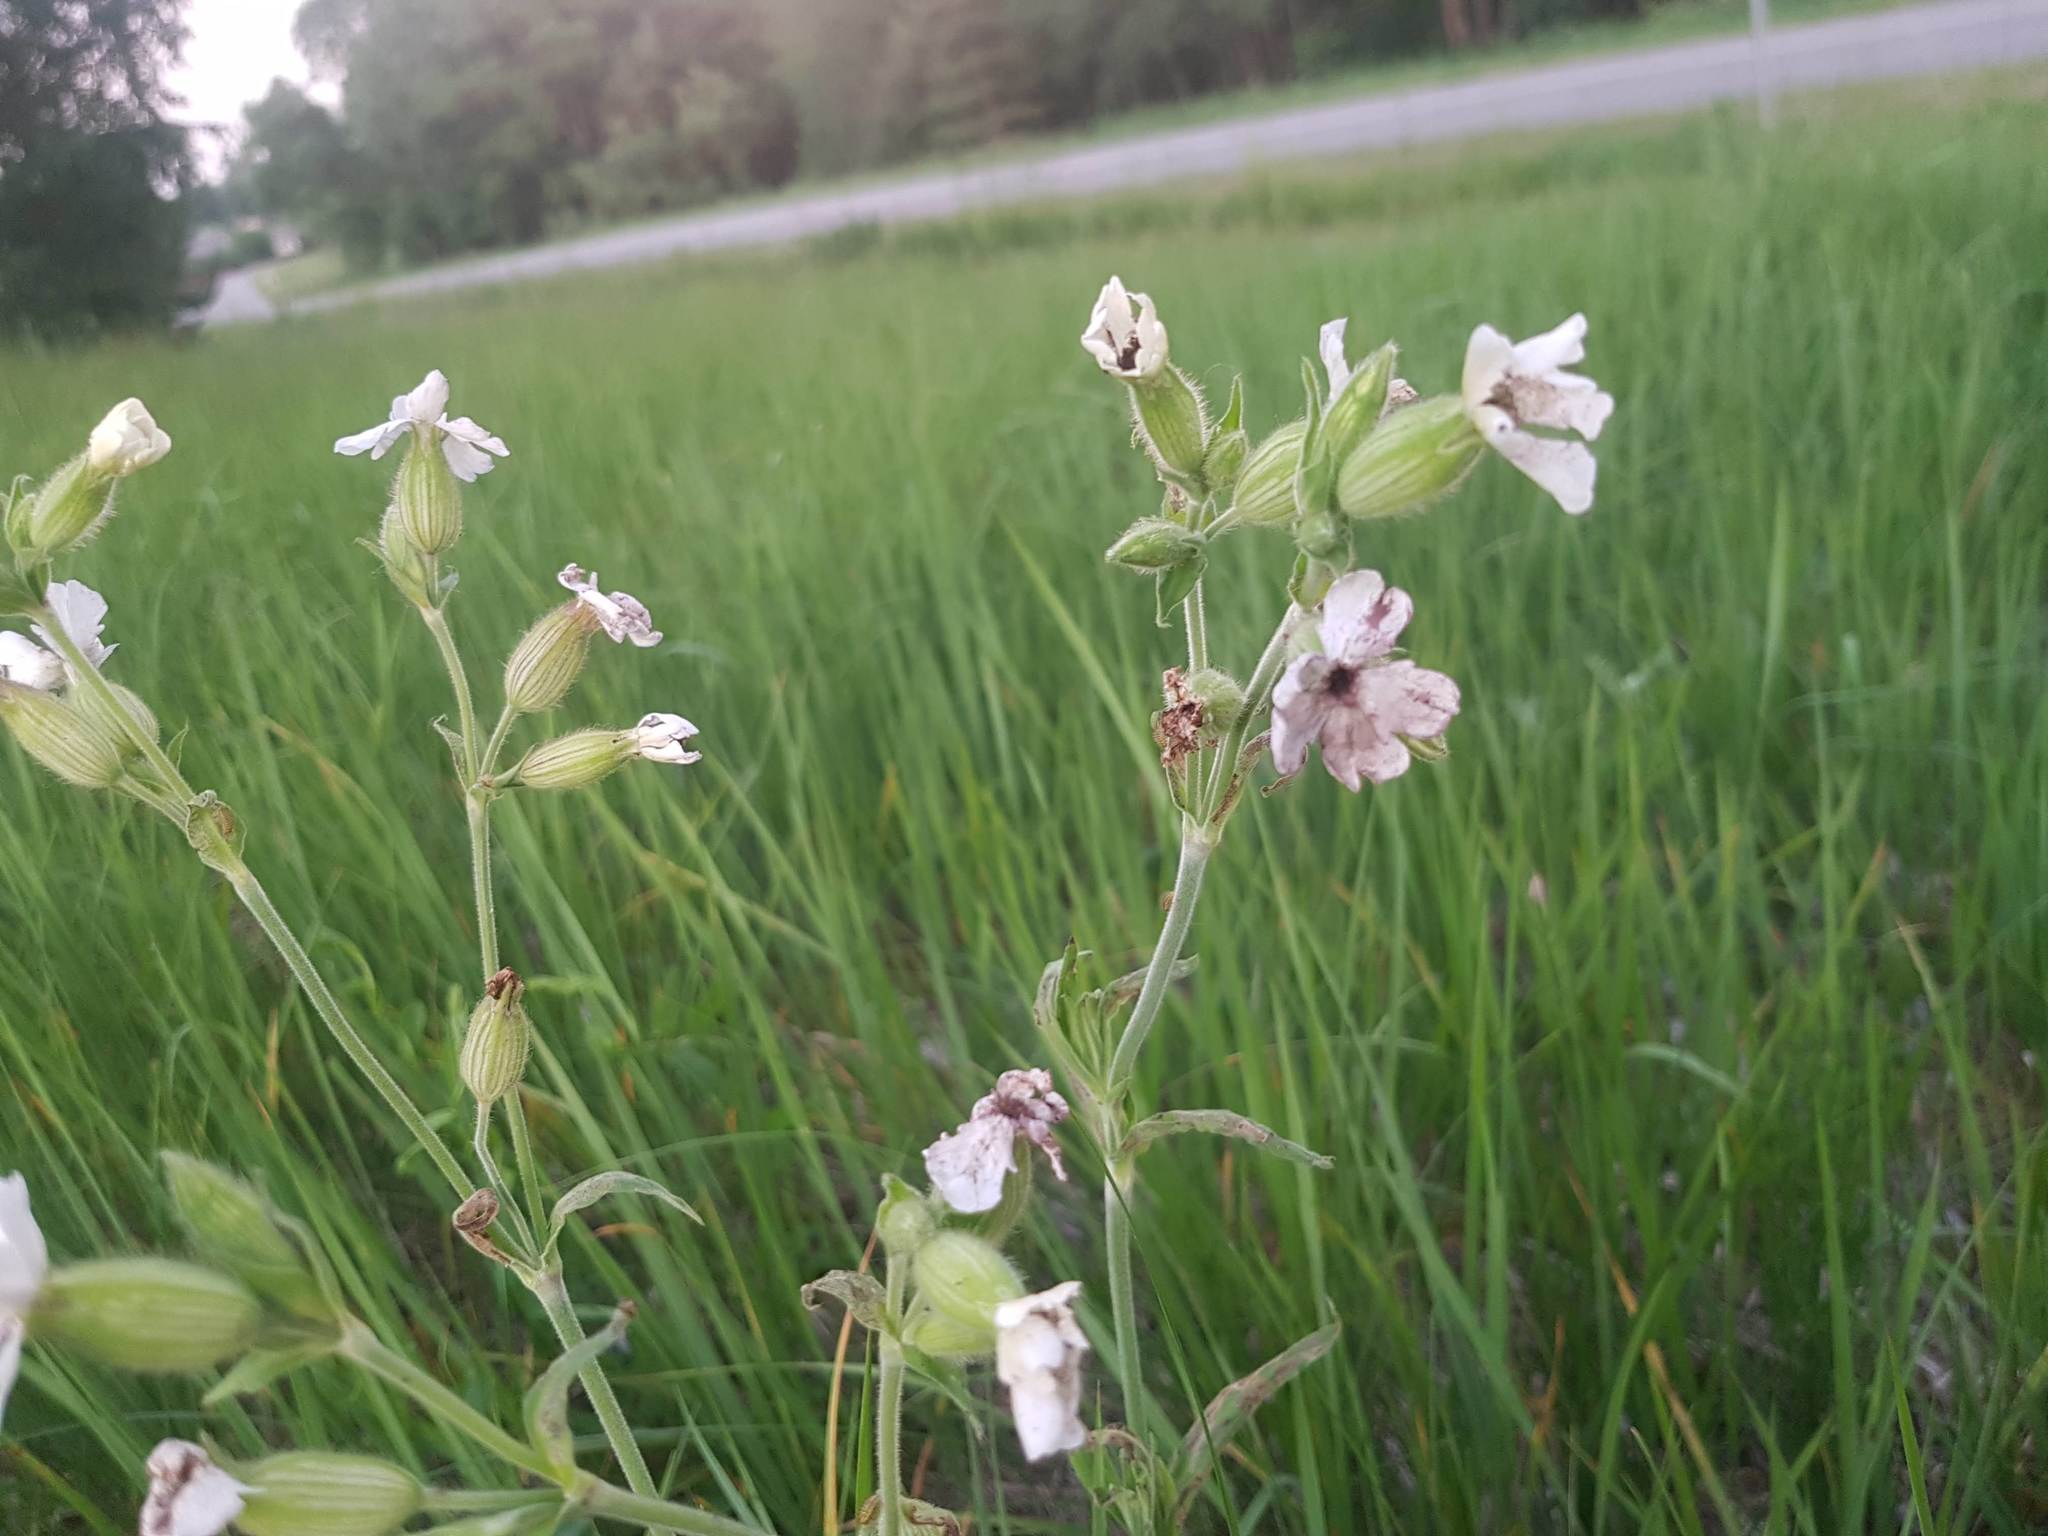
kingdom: Fungi
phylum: Basidiomycota
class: Microbotryomycetes
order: Microbotryales
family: Microbotryaceae
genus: Microbotryum
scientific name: Microbotryum lychnidis-dioicae
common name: Campion anther smut
